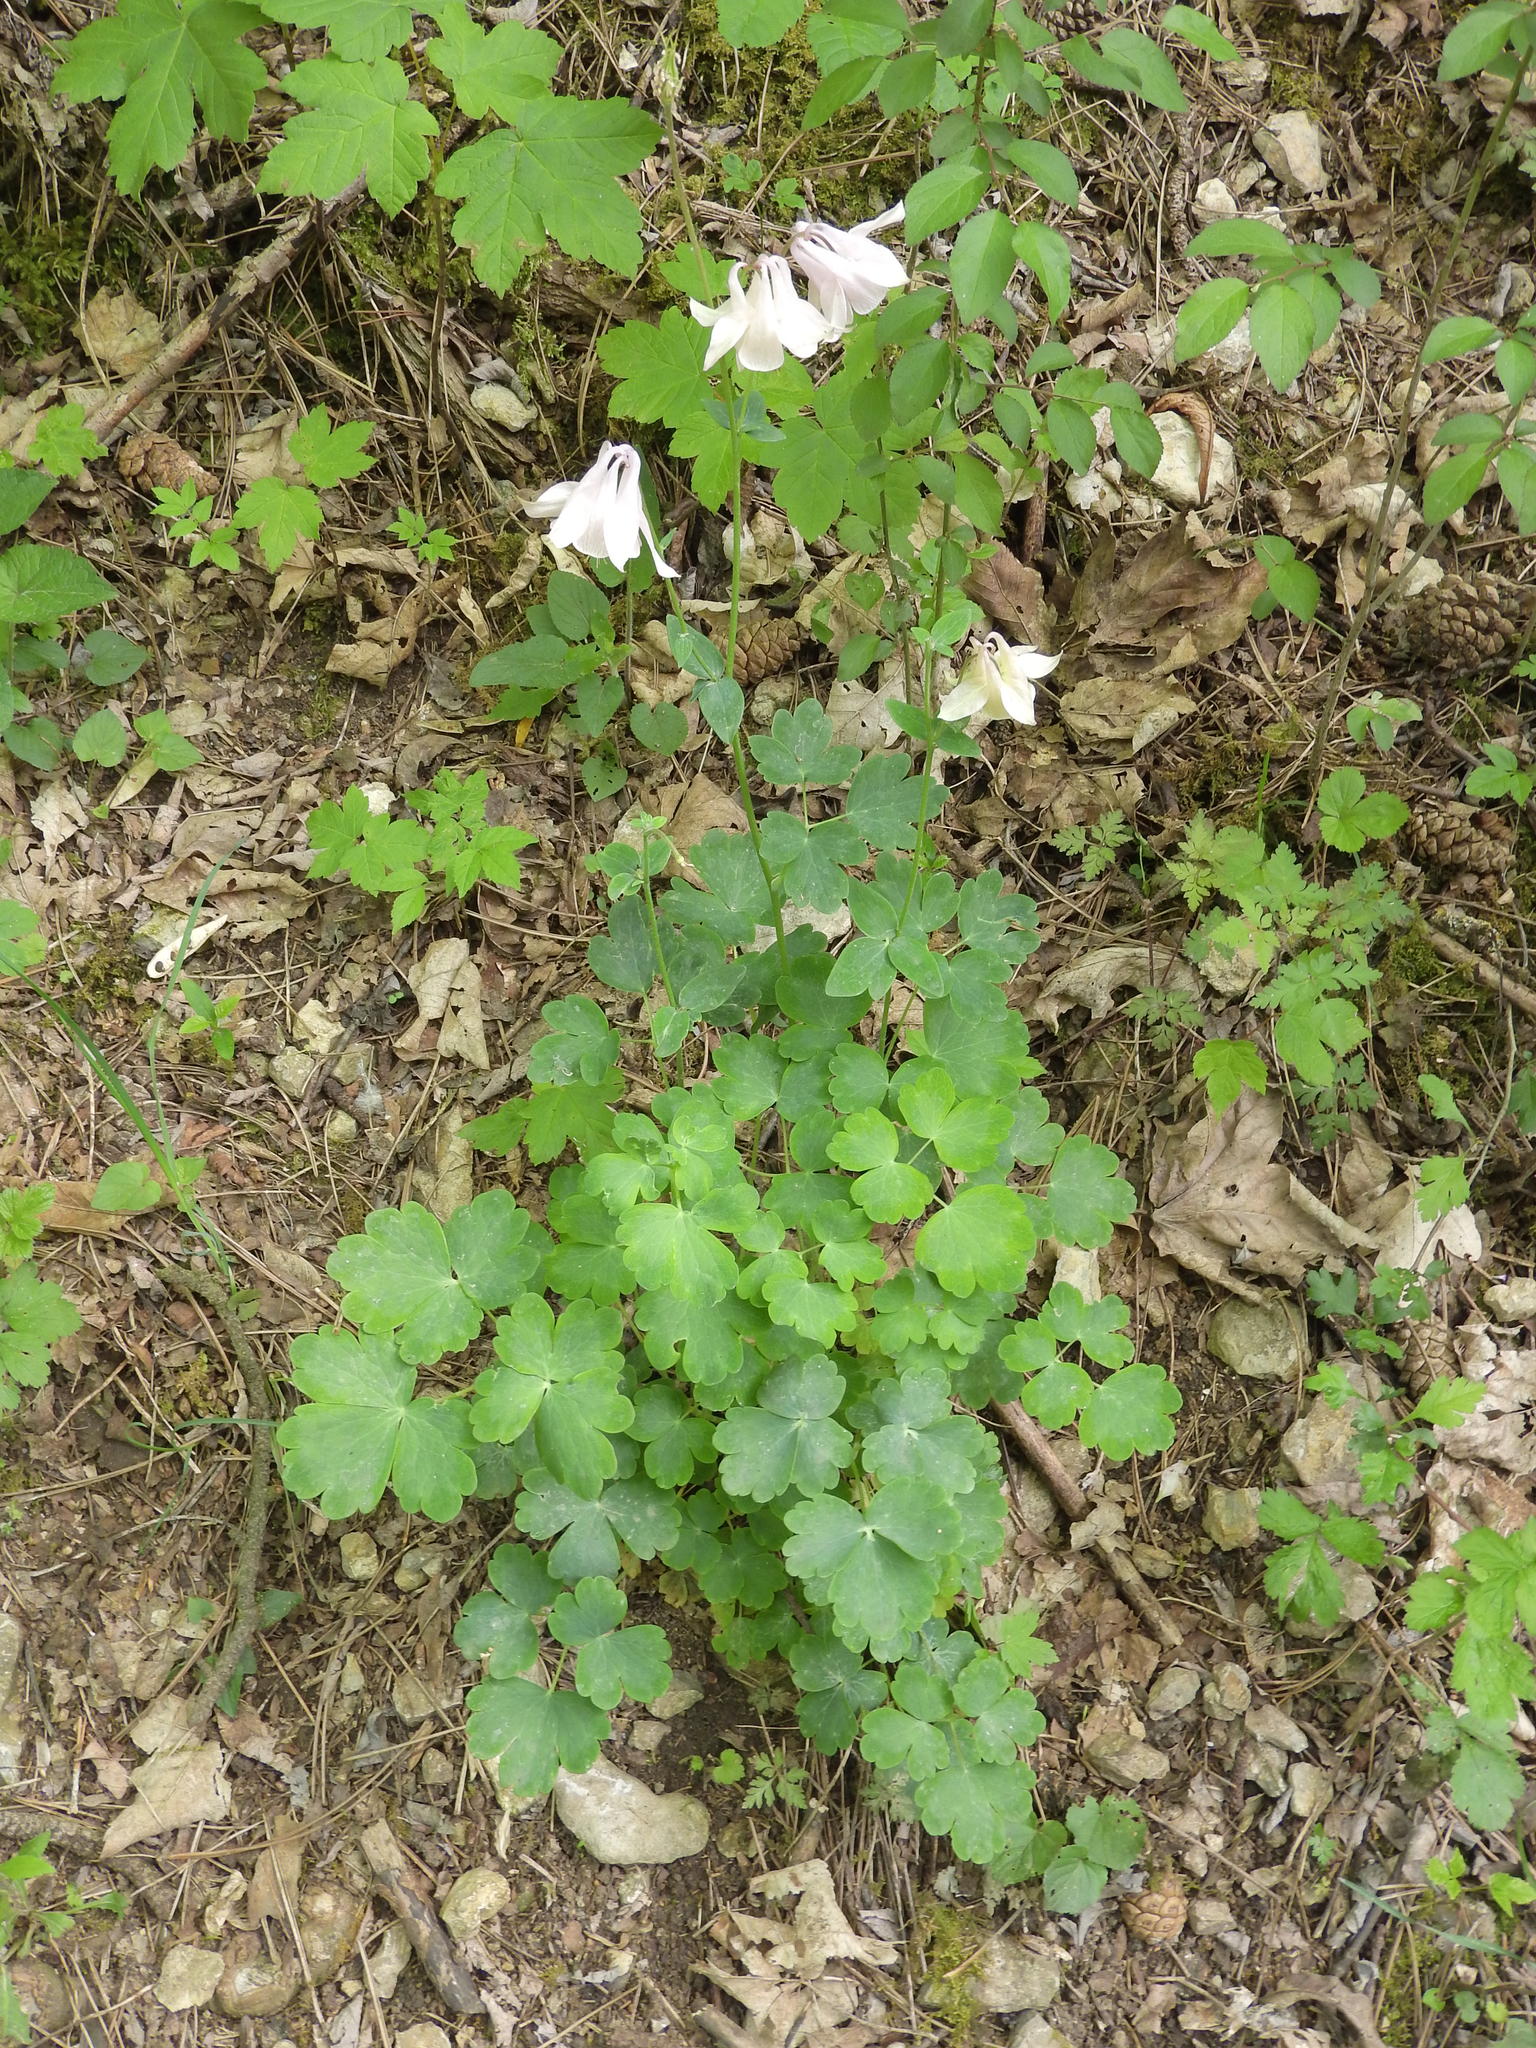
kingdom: Plantae
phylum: Tracheophyta
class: Magnoliopsida
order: Ranunculales
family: Ranunculaceae
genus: Aquilegia
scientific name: Aquilegia vulgaris
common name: Columbine
